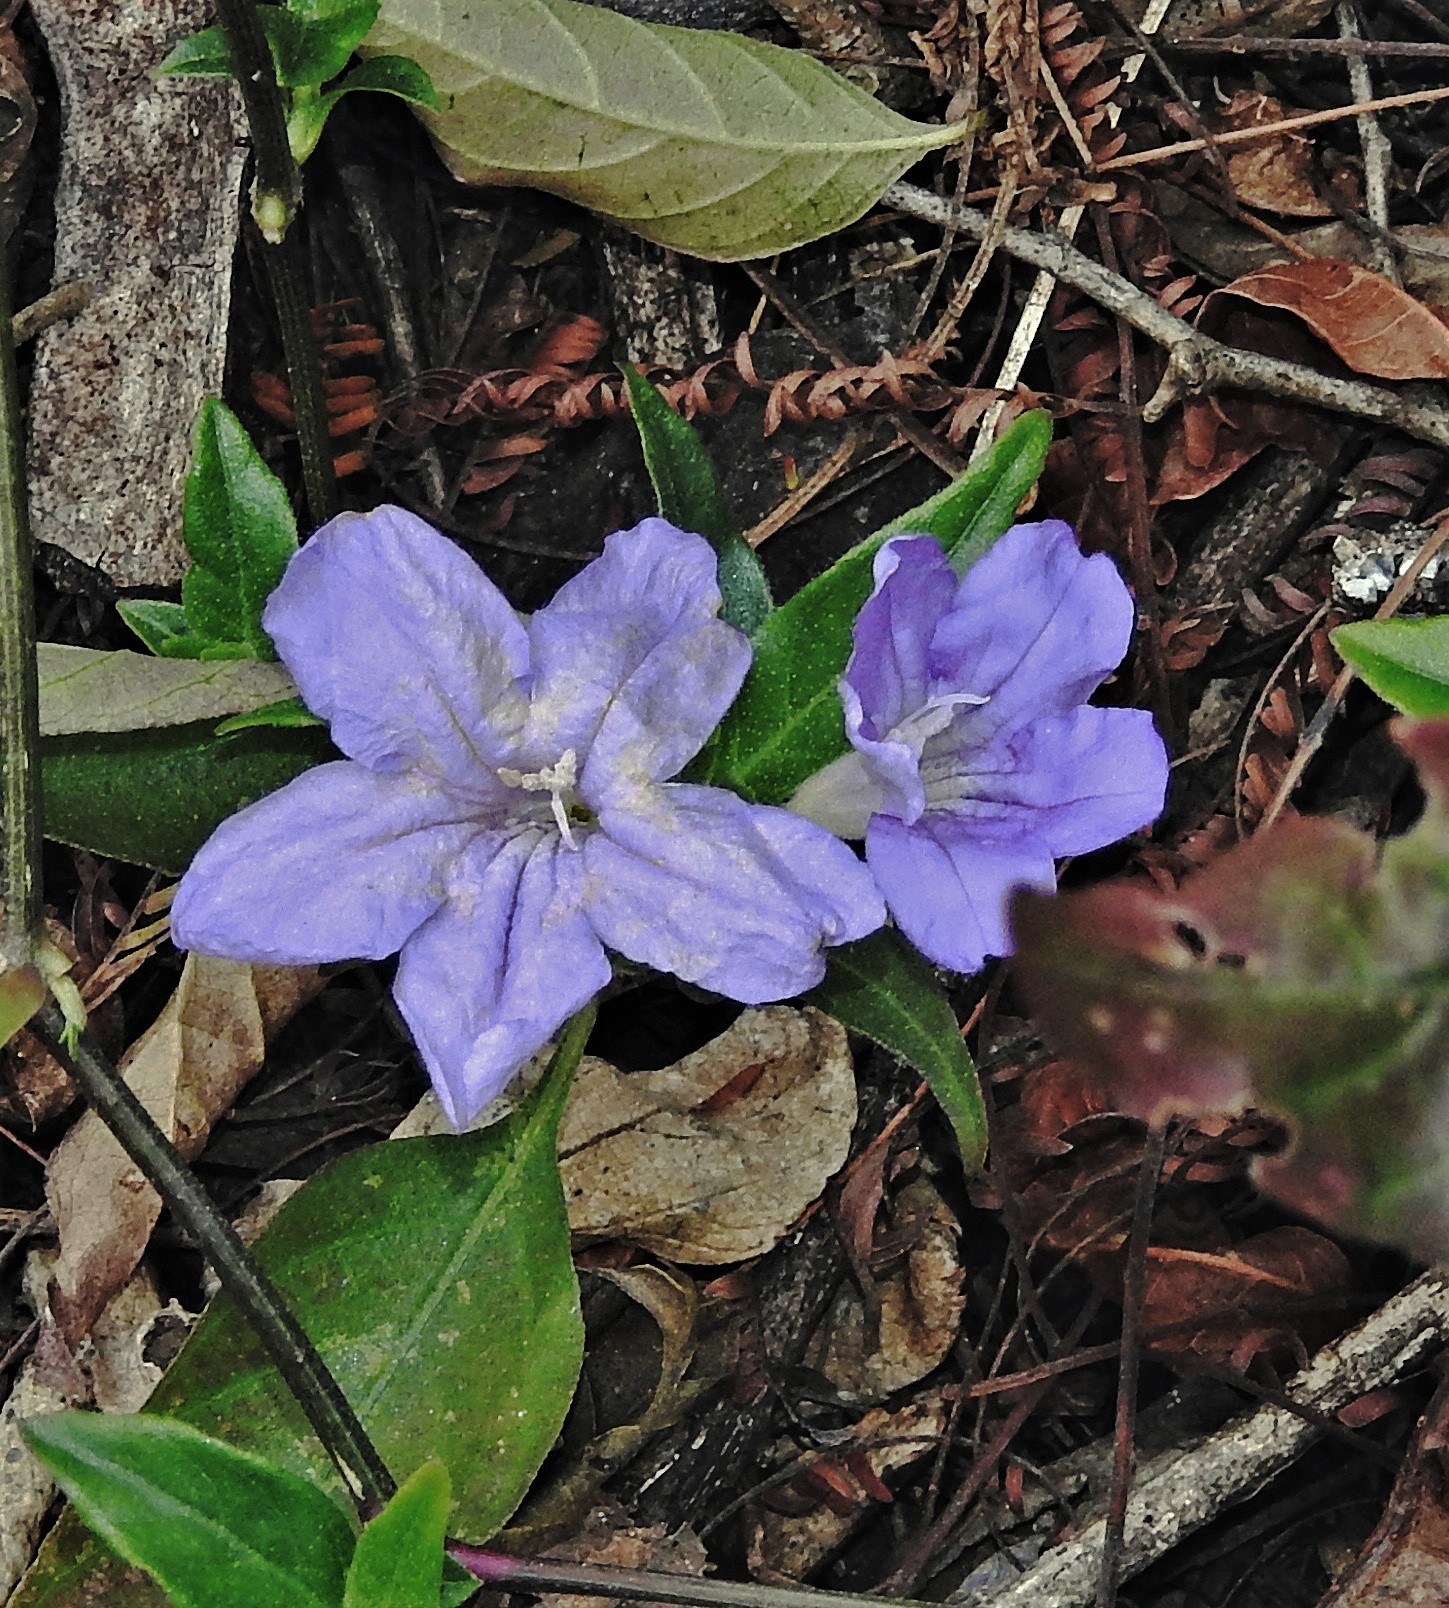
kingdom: Plantae
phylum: Tracheophyta
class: Magnoliopsida
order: Lamiales
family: Acanthaceae
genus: Ruellia
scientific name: Ruellia erythropus
